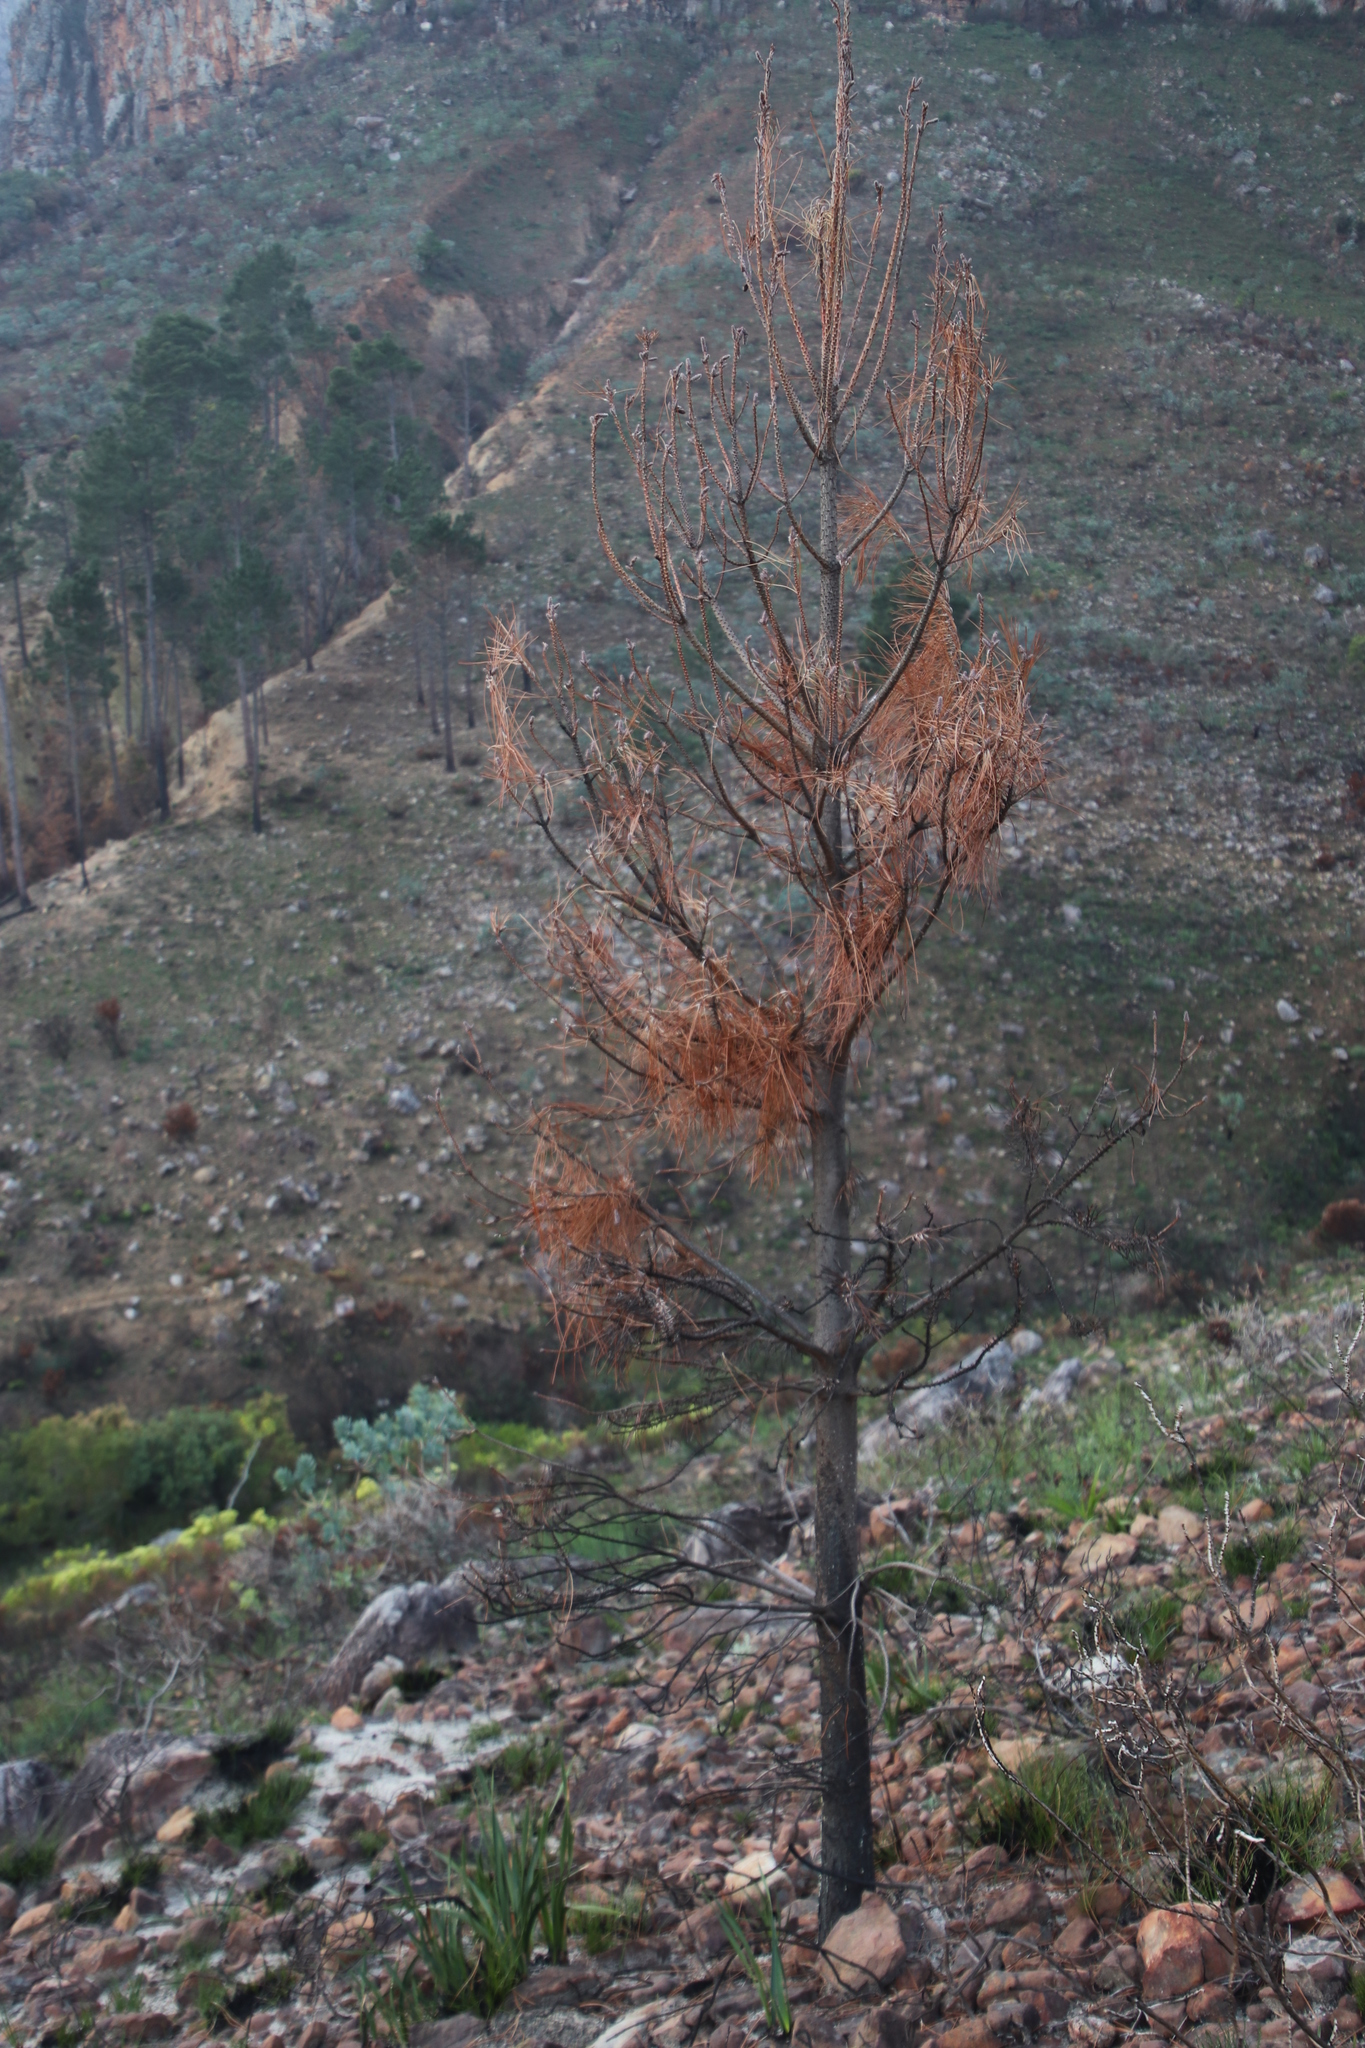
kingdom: Plantae
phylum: Tracheophyta
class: Pinopsida
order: Pinales
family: Pinaceae
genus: Pinus
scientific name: Pinus pinaster
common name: Maritime pine
